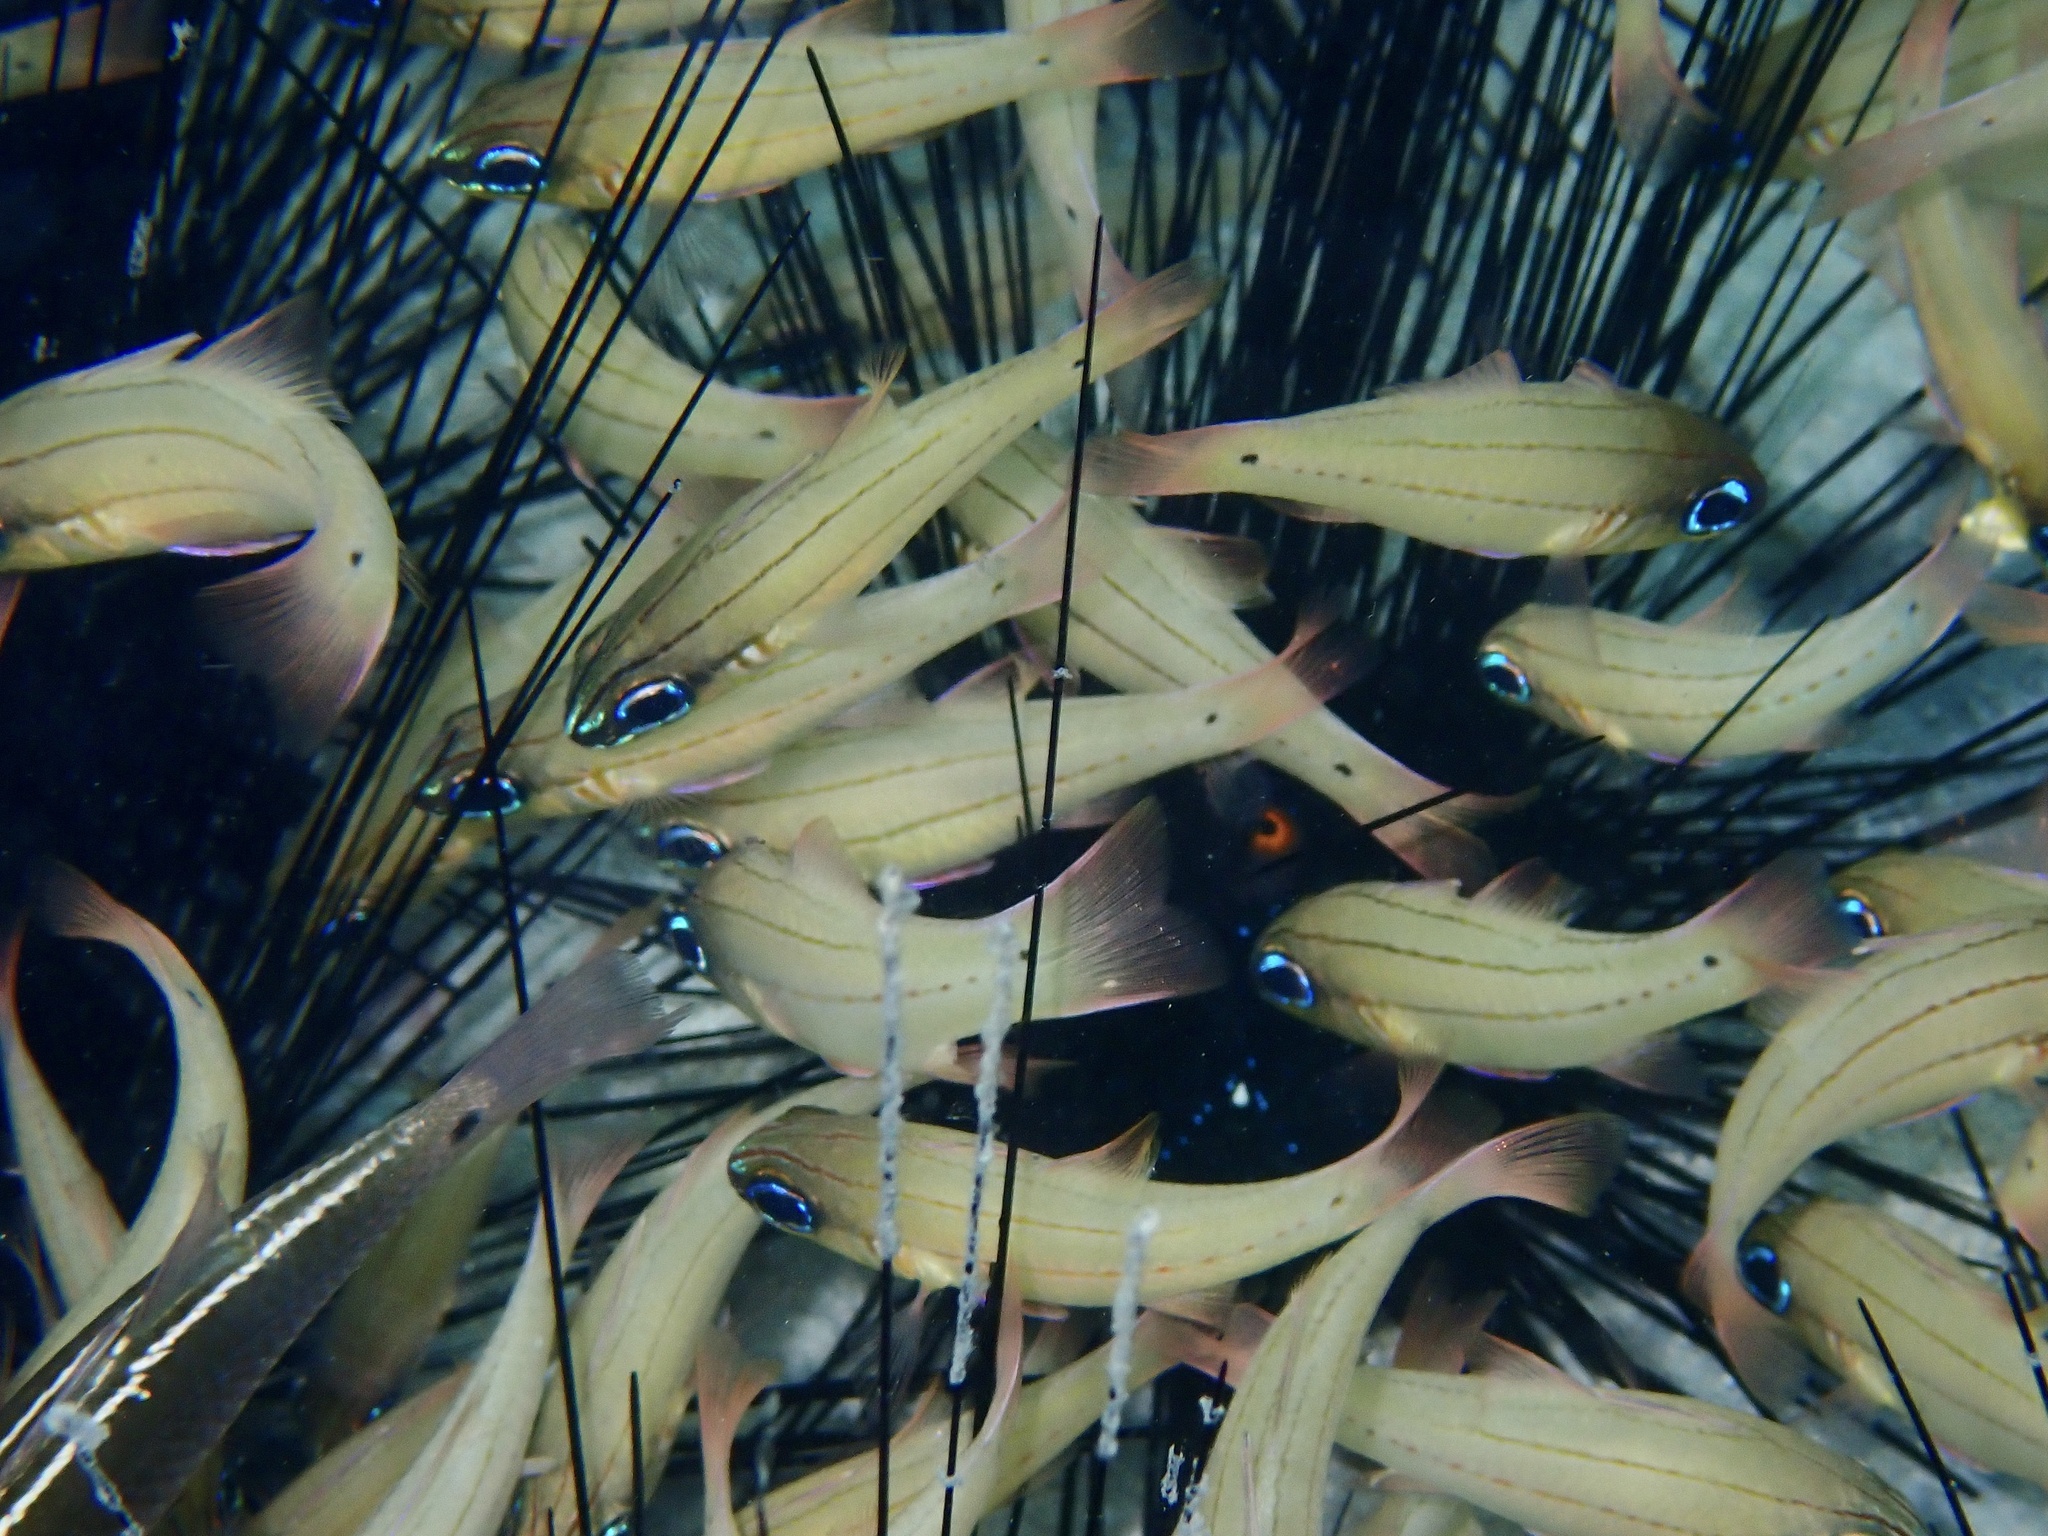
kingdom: Animalia
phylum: Chordata
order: Perciformes
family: Apogonidae
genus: Ostorhinchus
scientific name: Ostorhinchus sealei
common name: Seale's cardinalfish
